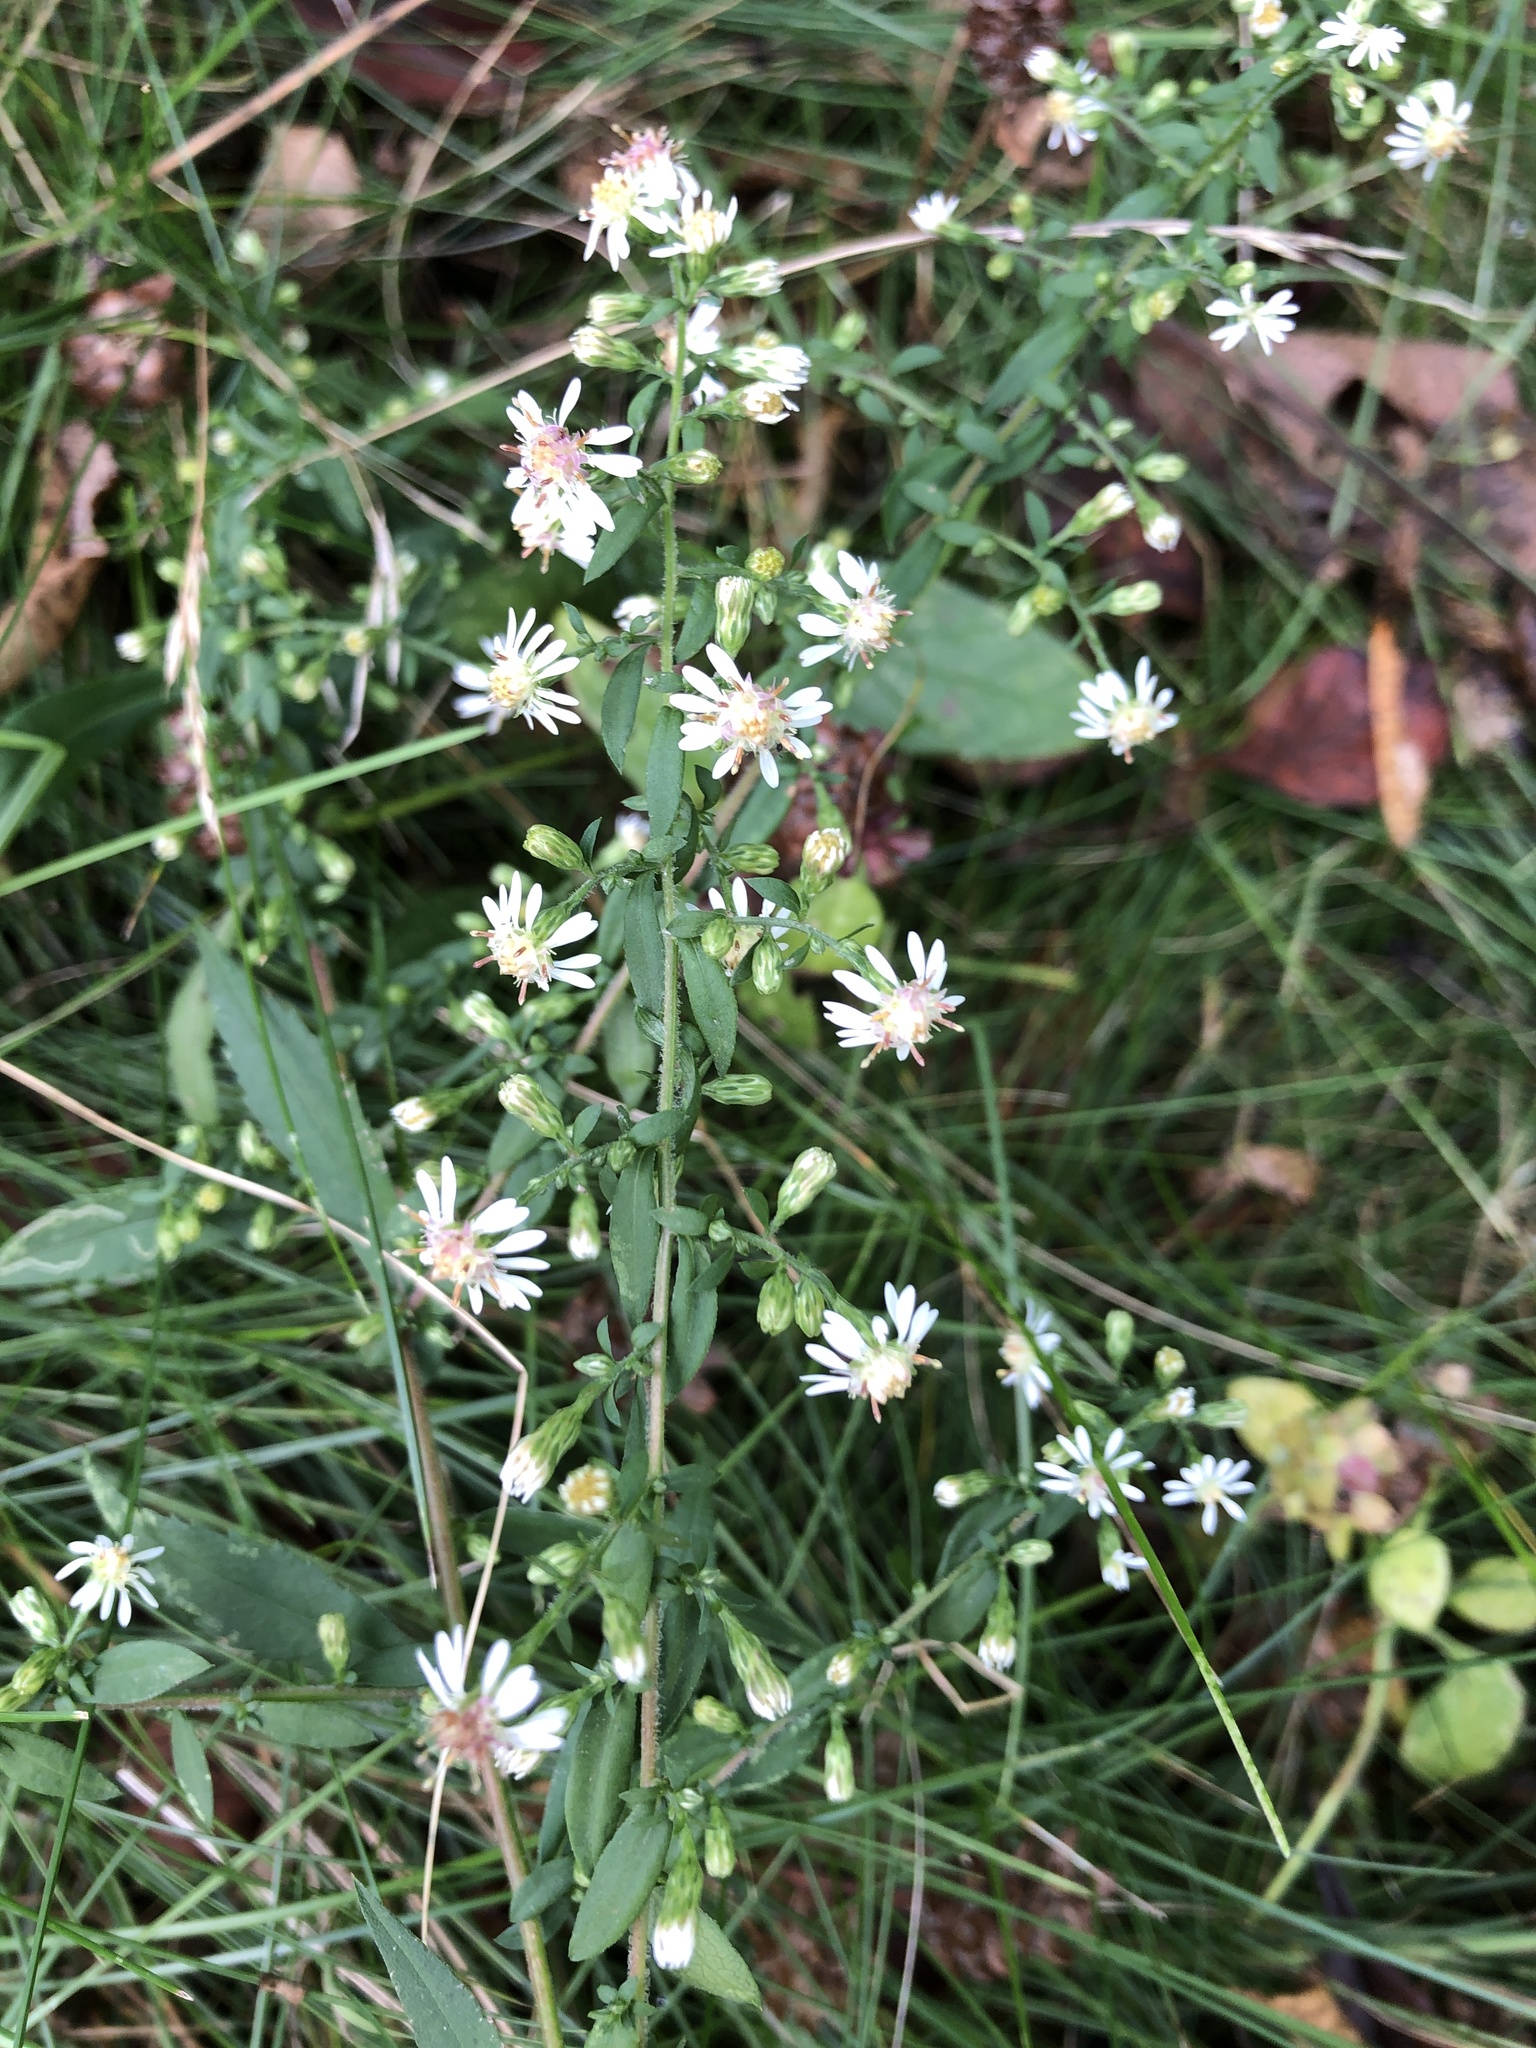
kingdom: Plantae
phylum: Tracheophyta
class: Magnoliopsida
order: Asterales
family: Asteraceae
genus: Symphyotrichum
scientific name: Symphyotrichum lateriflorum
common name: Calico aster
